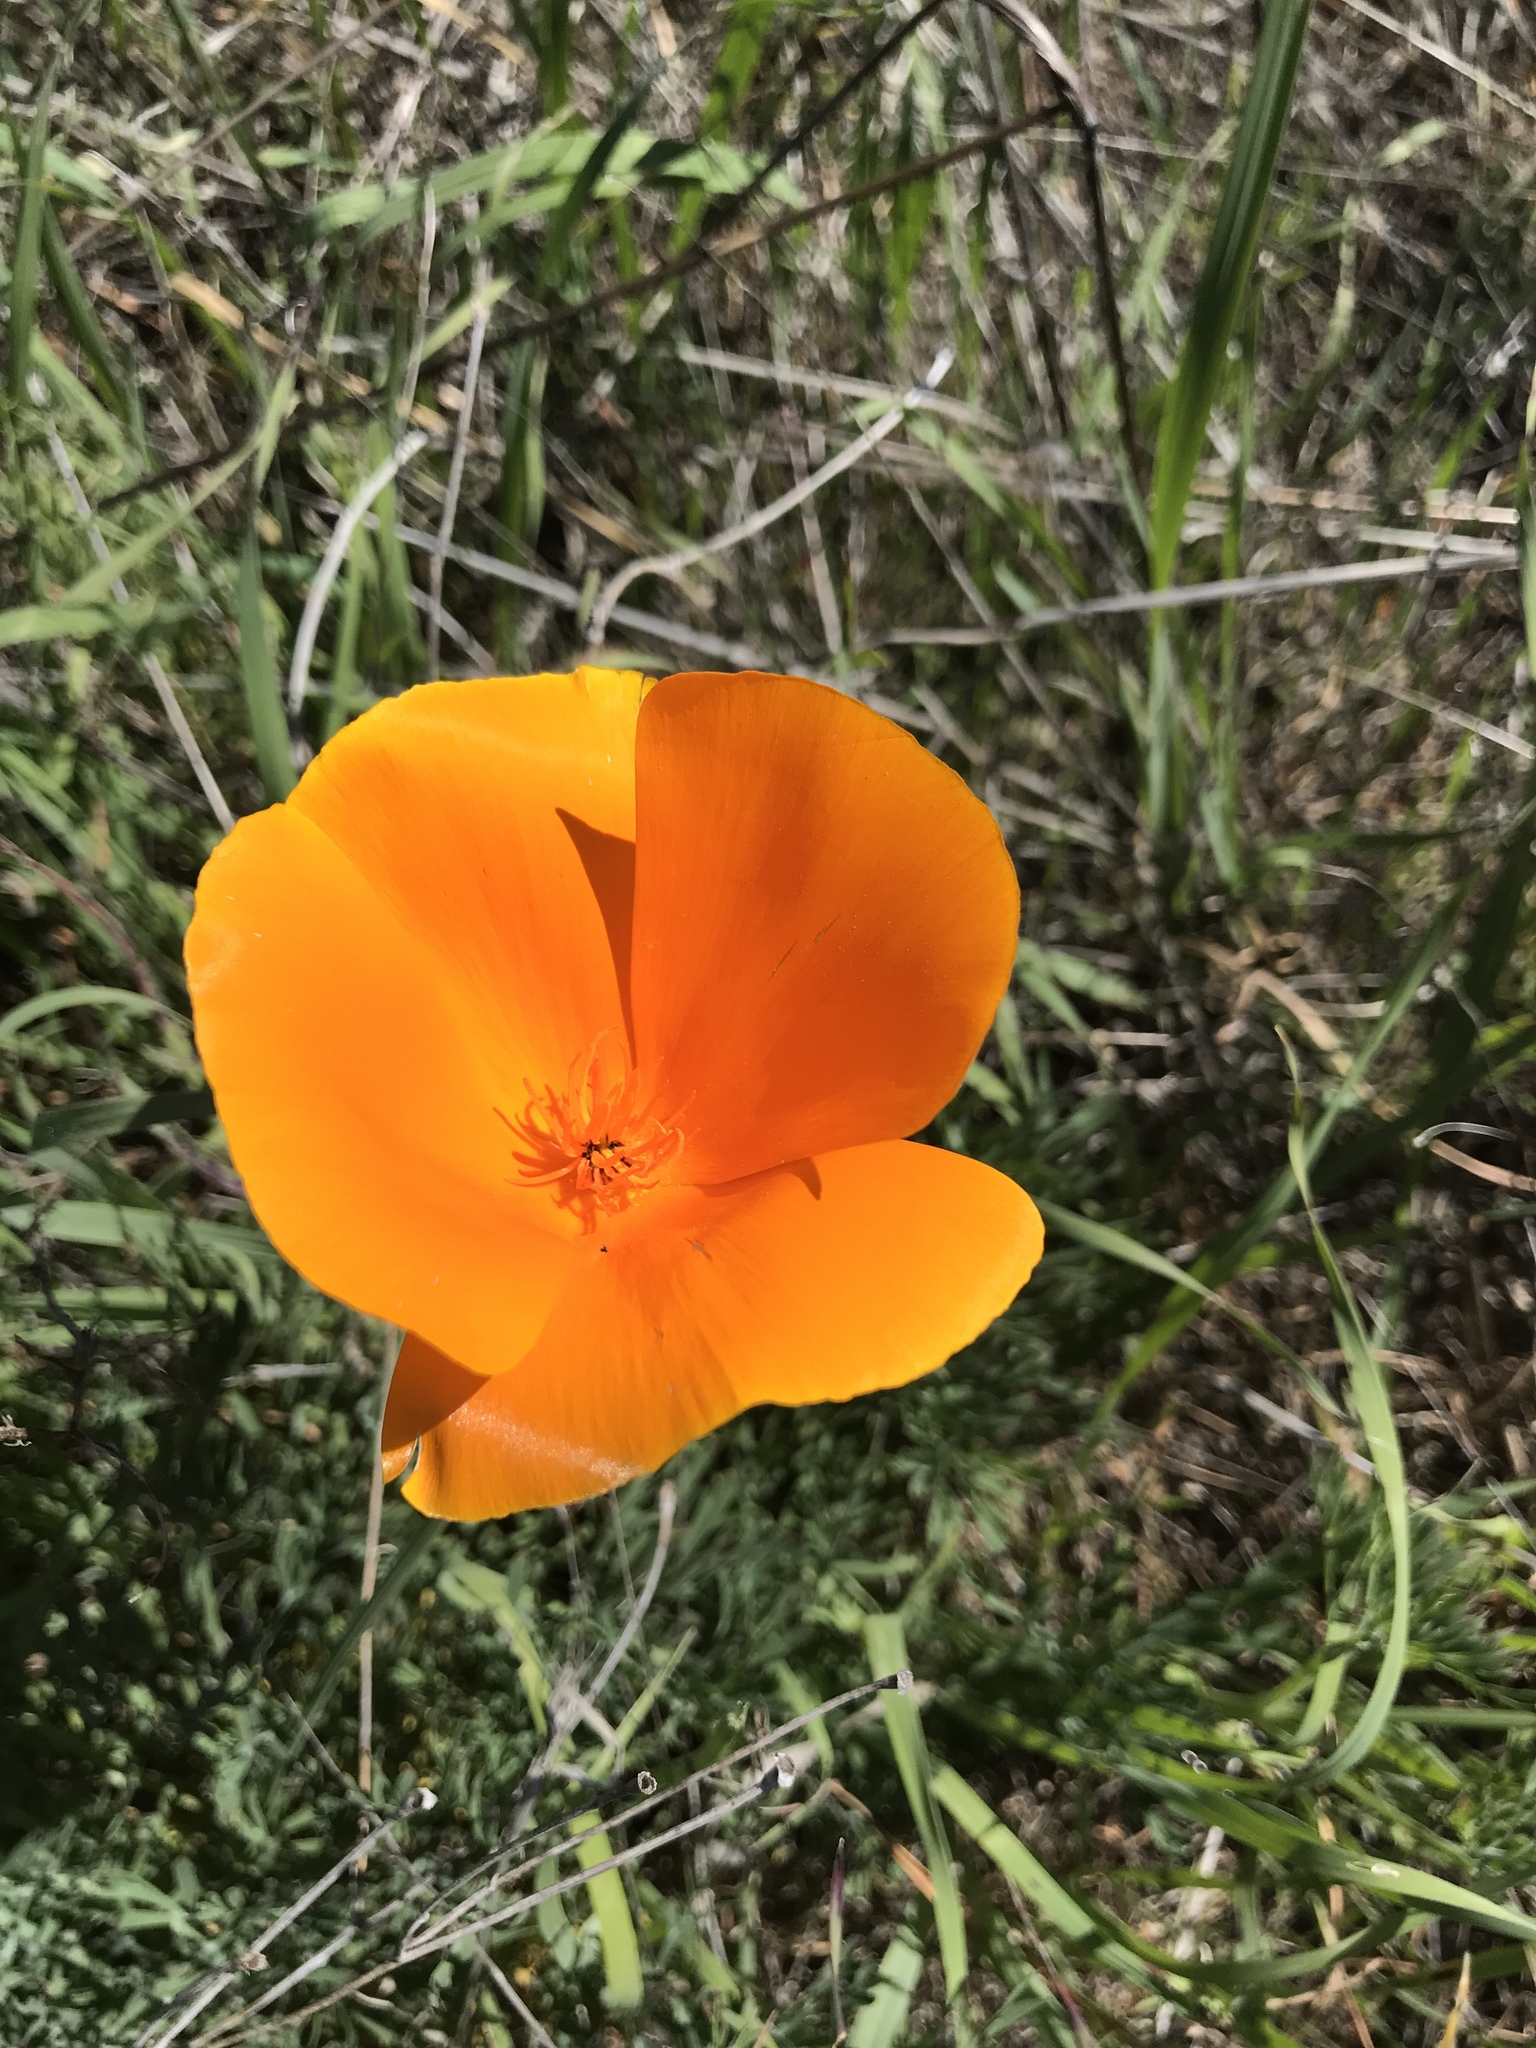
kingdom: Plantae
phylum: Tracheophyta
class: Magnoliopsida
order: Ranunculales
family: Papaveraceae
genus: Eschscholzia
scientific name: Eschscholzia californica
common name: California poppy
